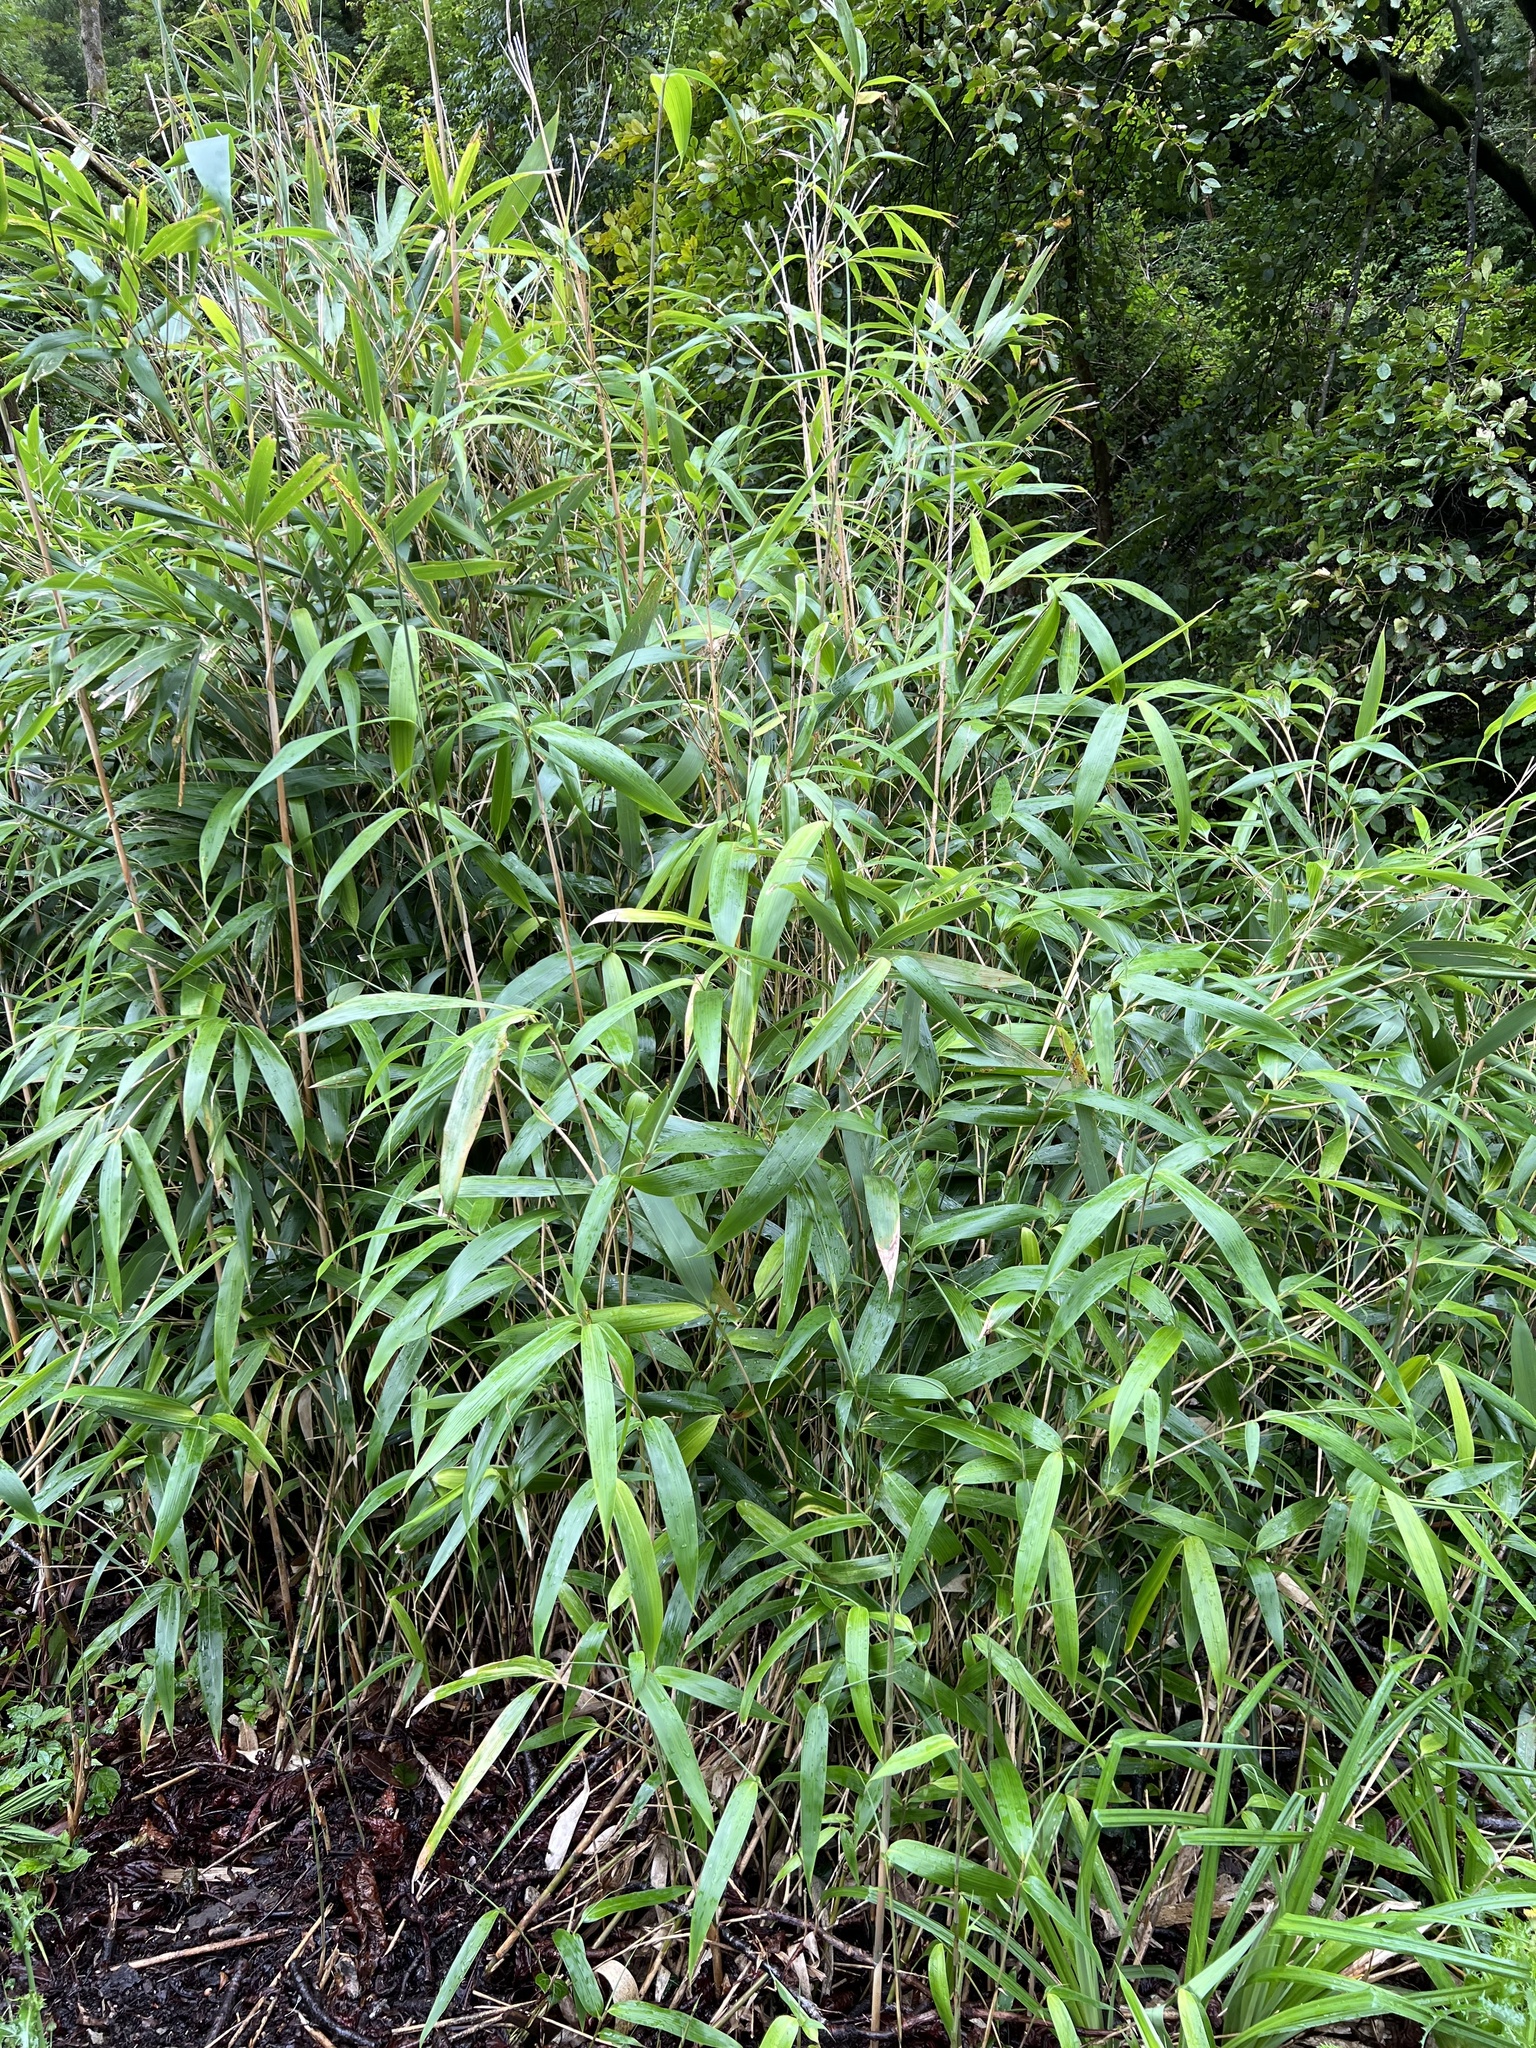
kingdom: Plantae
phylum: Tracheophyta
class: Liliopsida
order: Poales
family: Poaceae
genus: Pseudosasa
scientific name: Pseudosasa japonica
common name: Arrow bamboo
